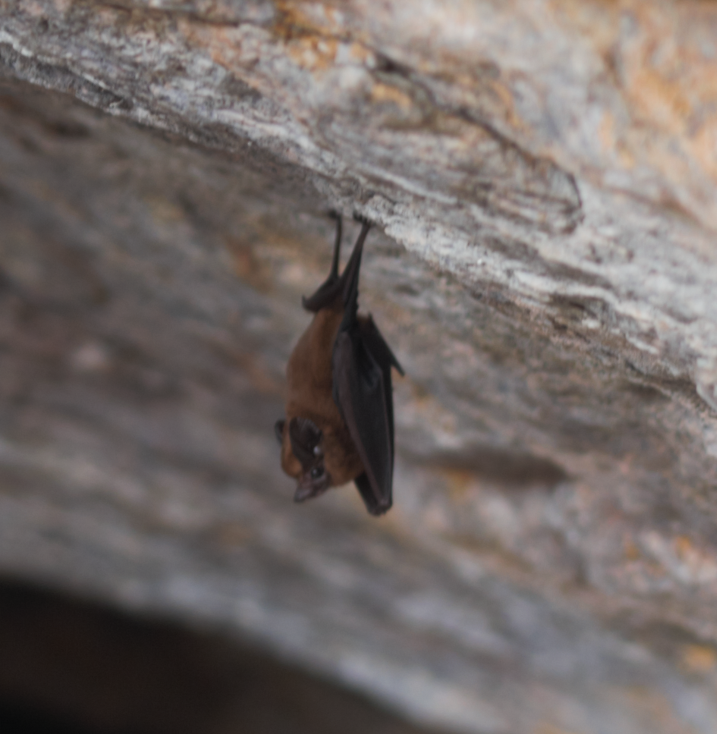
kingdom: Animalia
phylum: Chordata
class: Mammalia
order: Chiroptera
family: Emballonuridae
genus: Peropteryx
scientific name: Peropteryx
